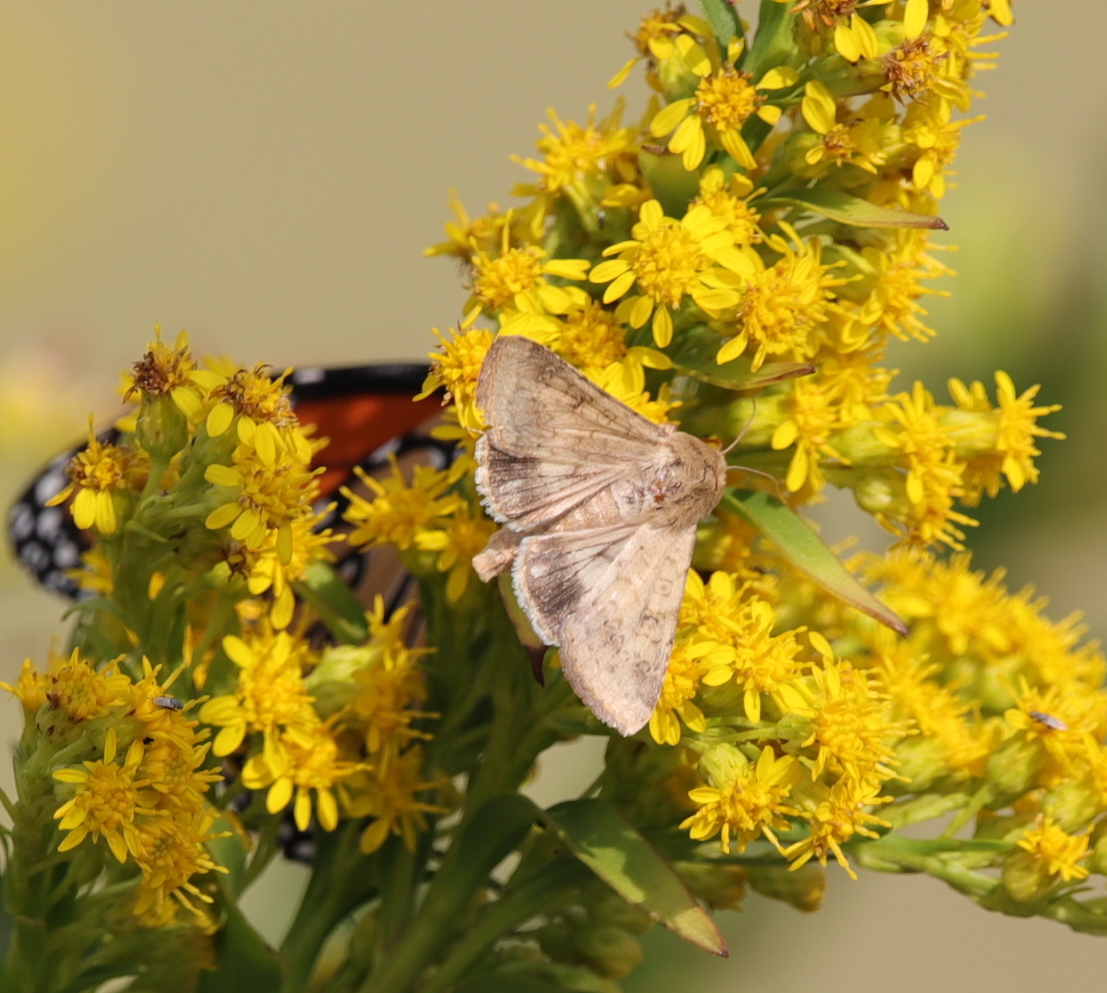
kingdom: Animalia
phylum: Arthropoda
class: Insecta
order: Lepidoptera
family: Noctuidae
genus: Helicoverpa
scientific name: Helicoverpa zea
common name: Bollworm
